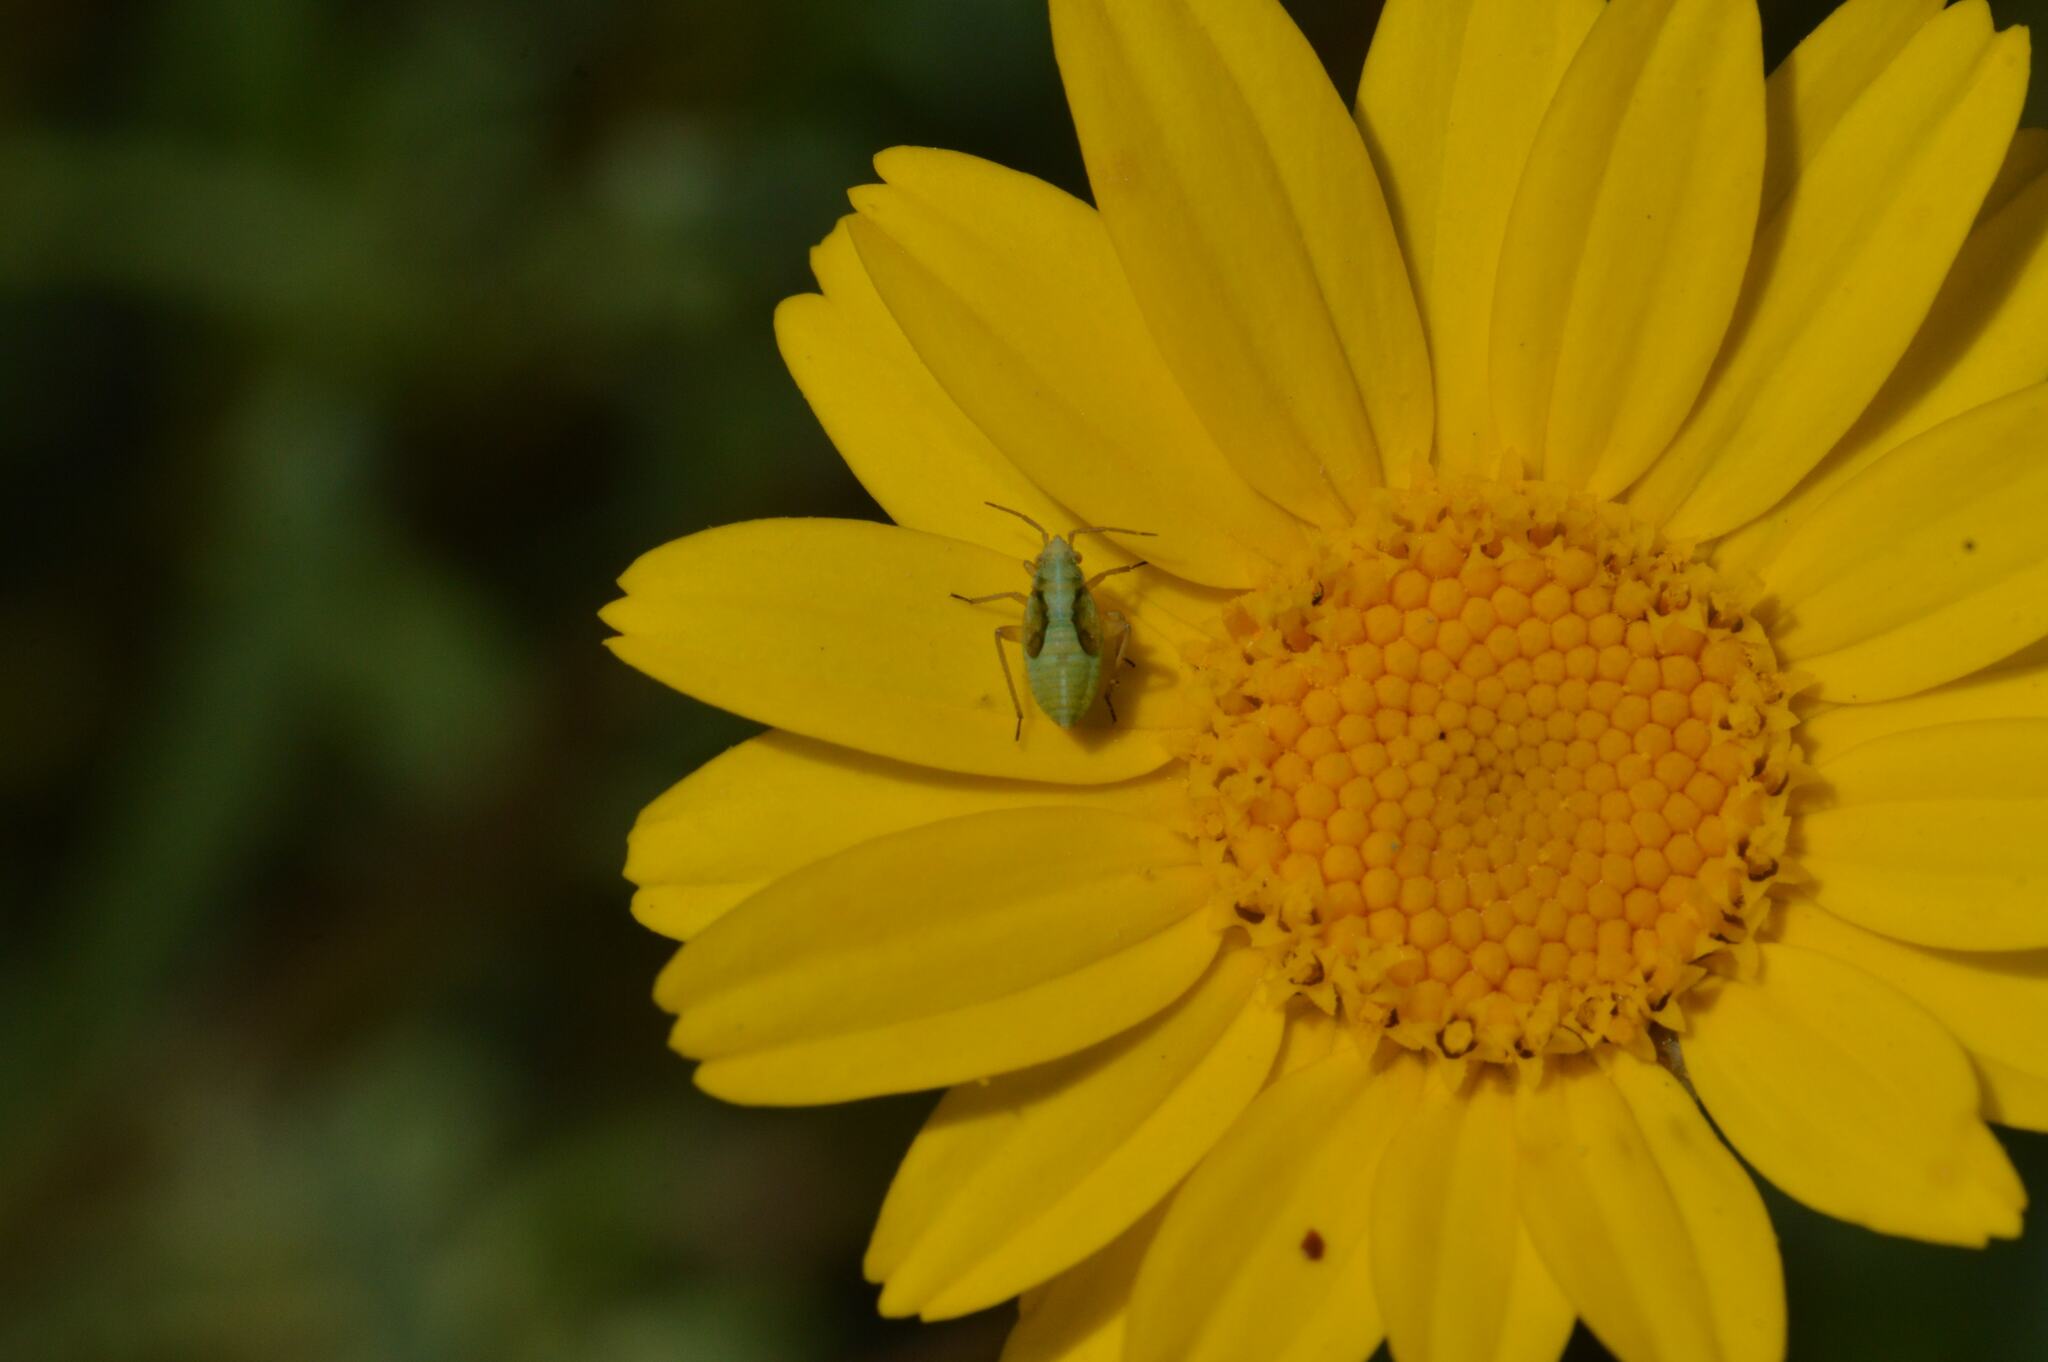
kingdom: Animalia
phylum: Arthropoda
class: Insecta
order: Hemiptera
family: Miridae
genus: Closterotomus
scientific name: Closterotomus norvegicus
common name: Plant bug
